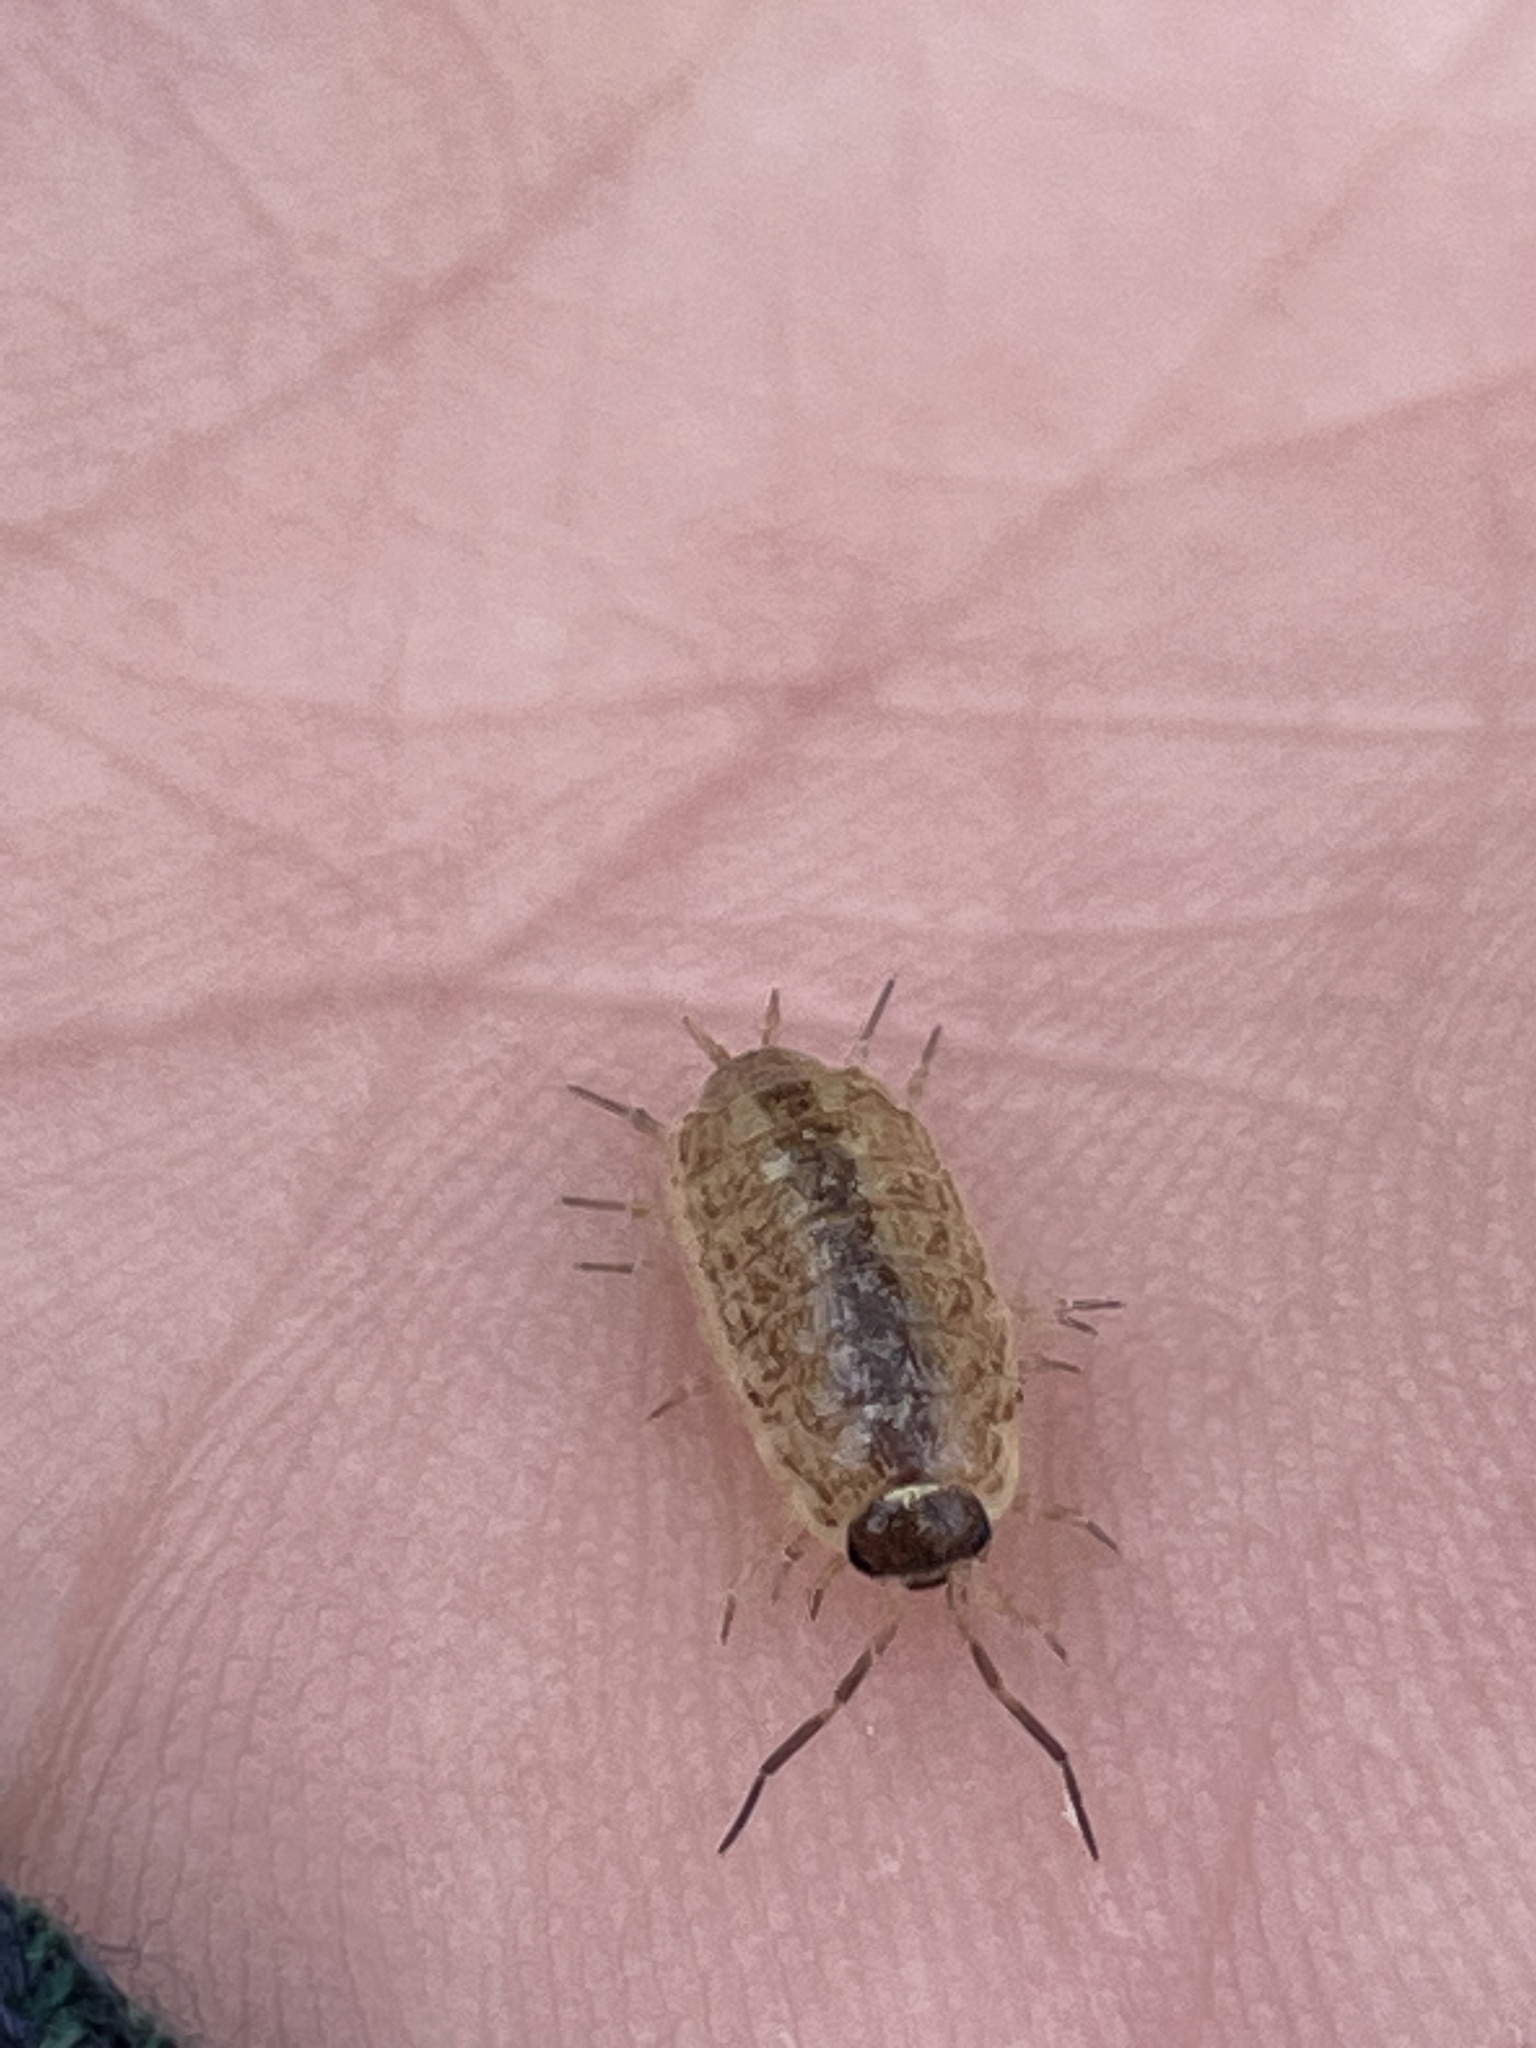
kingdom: Animalia
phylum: Arthropoda
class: Malacostraca
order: Isopoda
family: Philosciidae
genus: Philoscia
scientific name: Philoscia muscorum
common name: Common striped woodlouse
